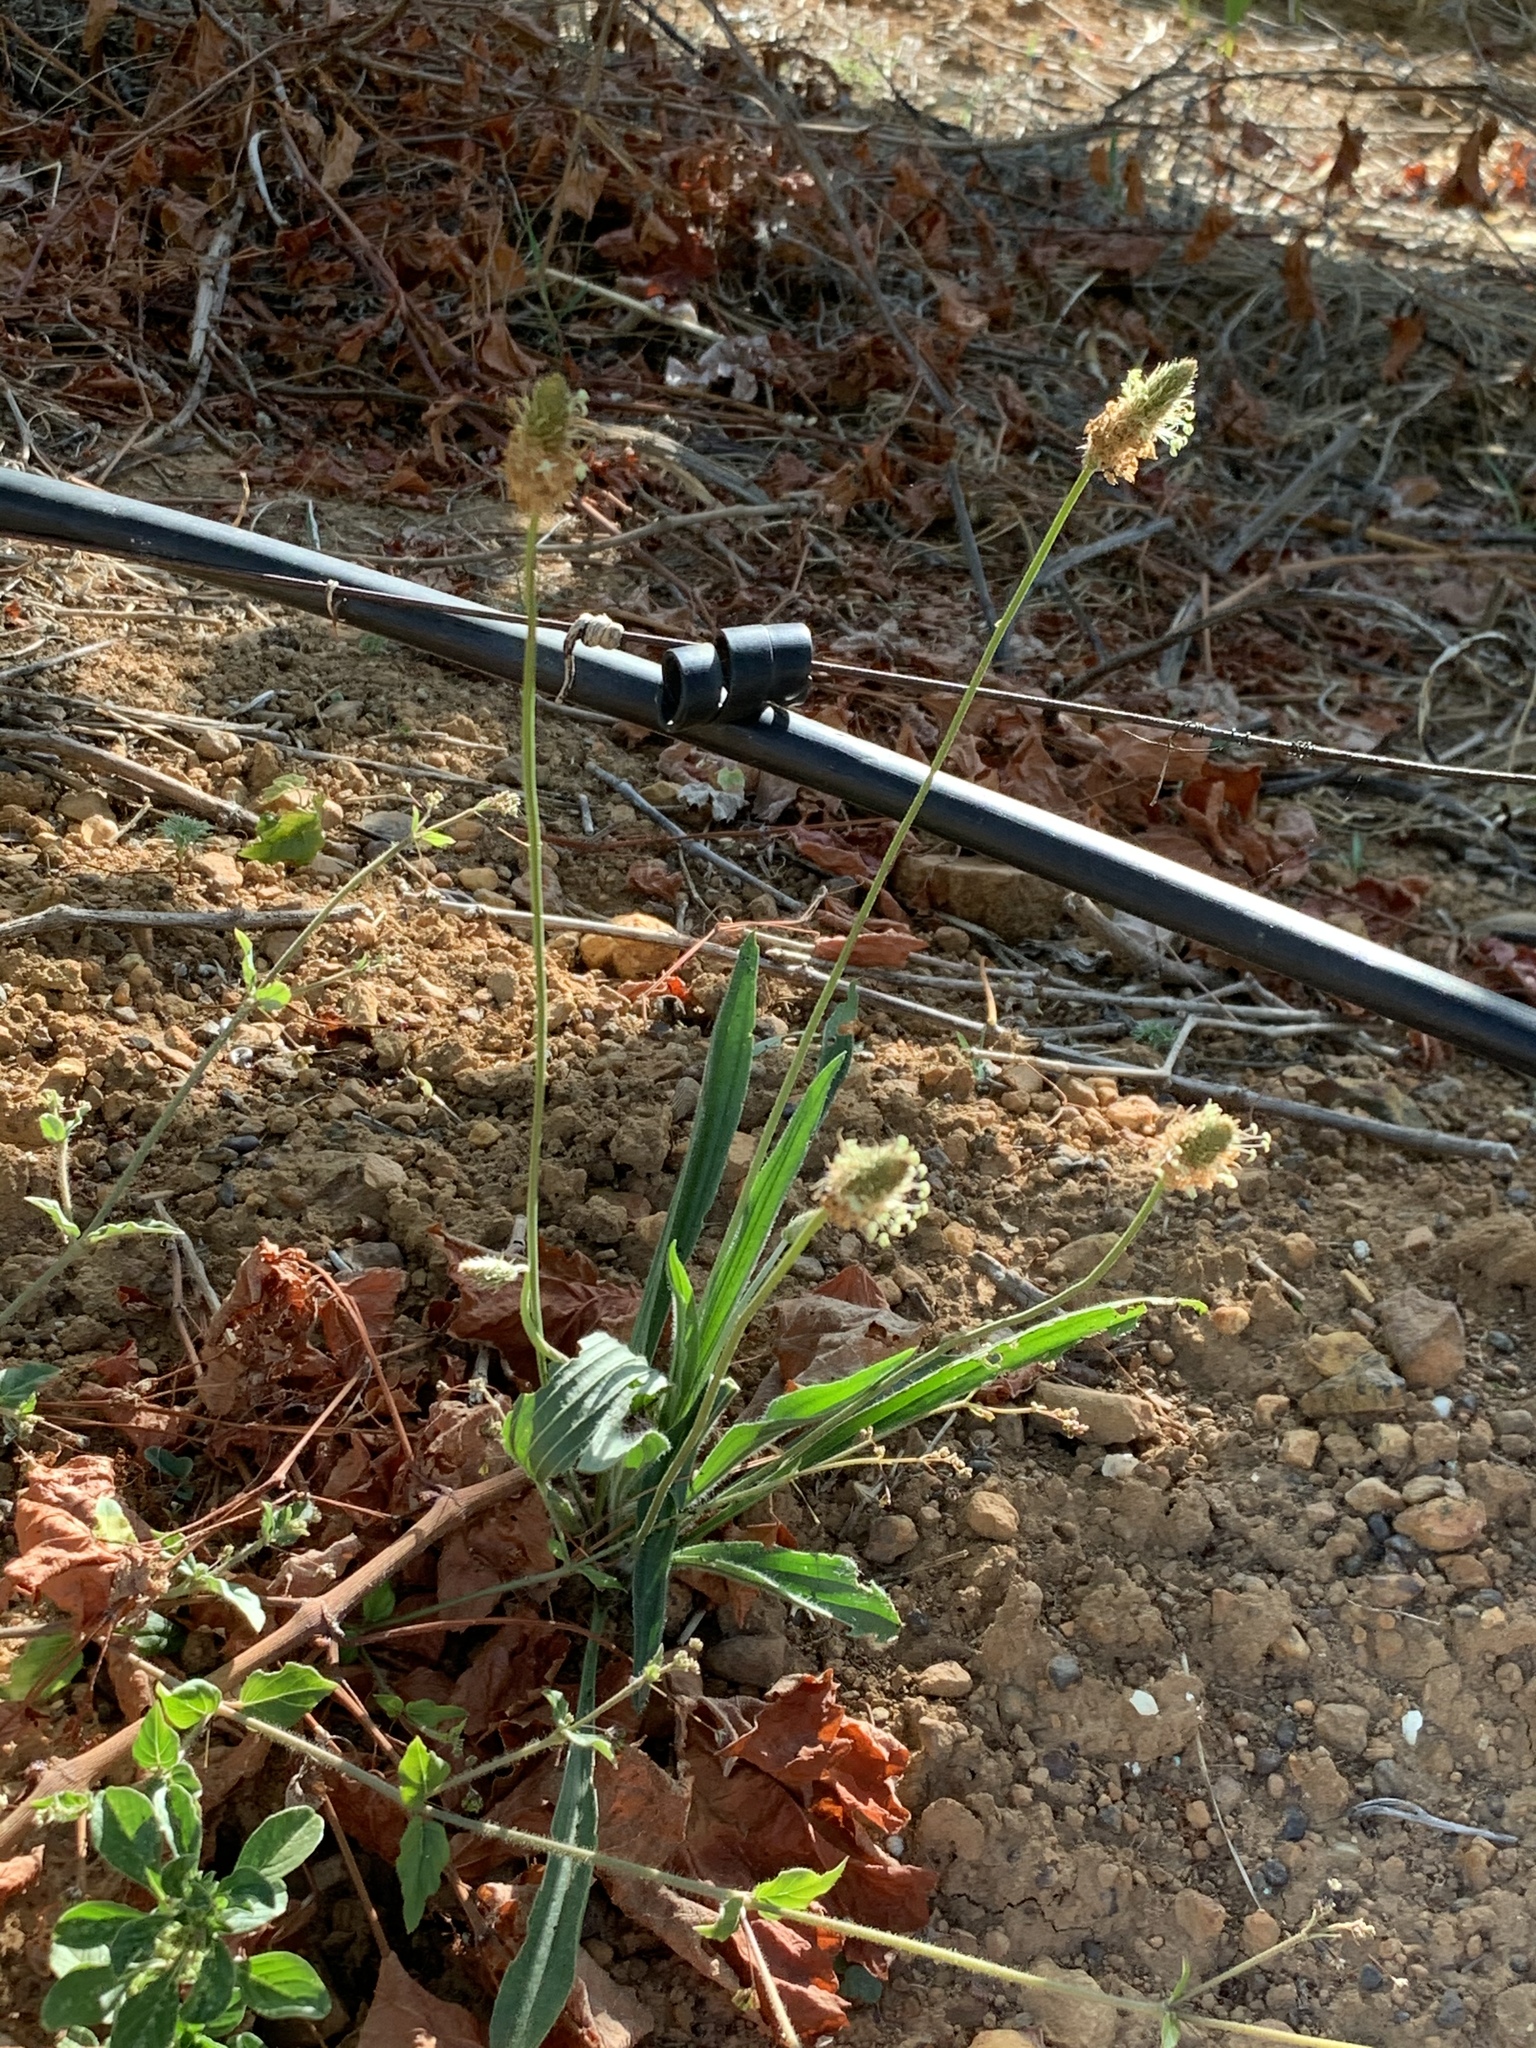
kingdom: Plantae
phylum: Tracheophyta
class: Magnoliopsida
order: Lamiales
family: Plantaginaceae
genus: Plantago
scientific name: Plantago lanceolata
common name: Ribwort plantain
